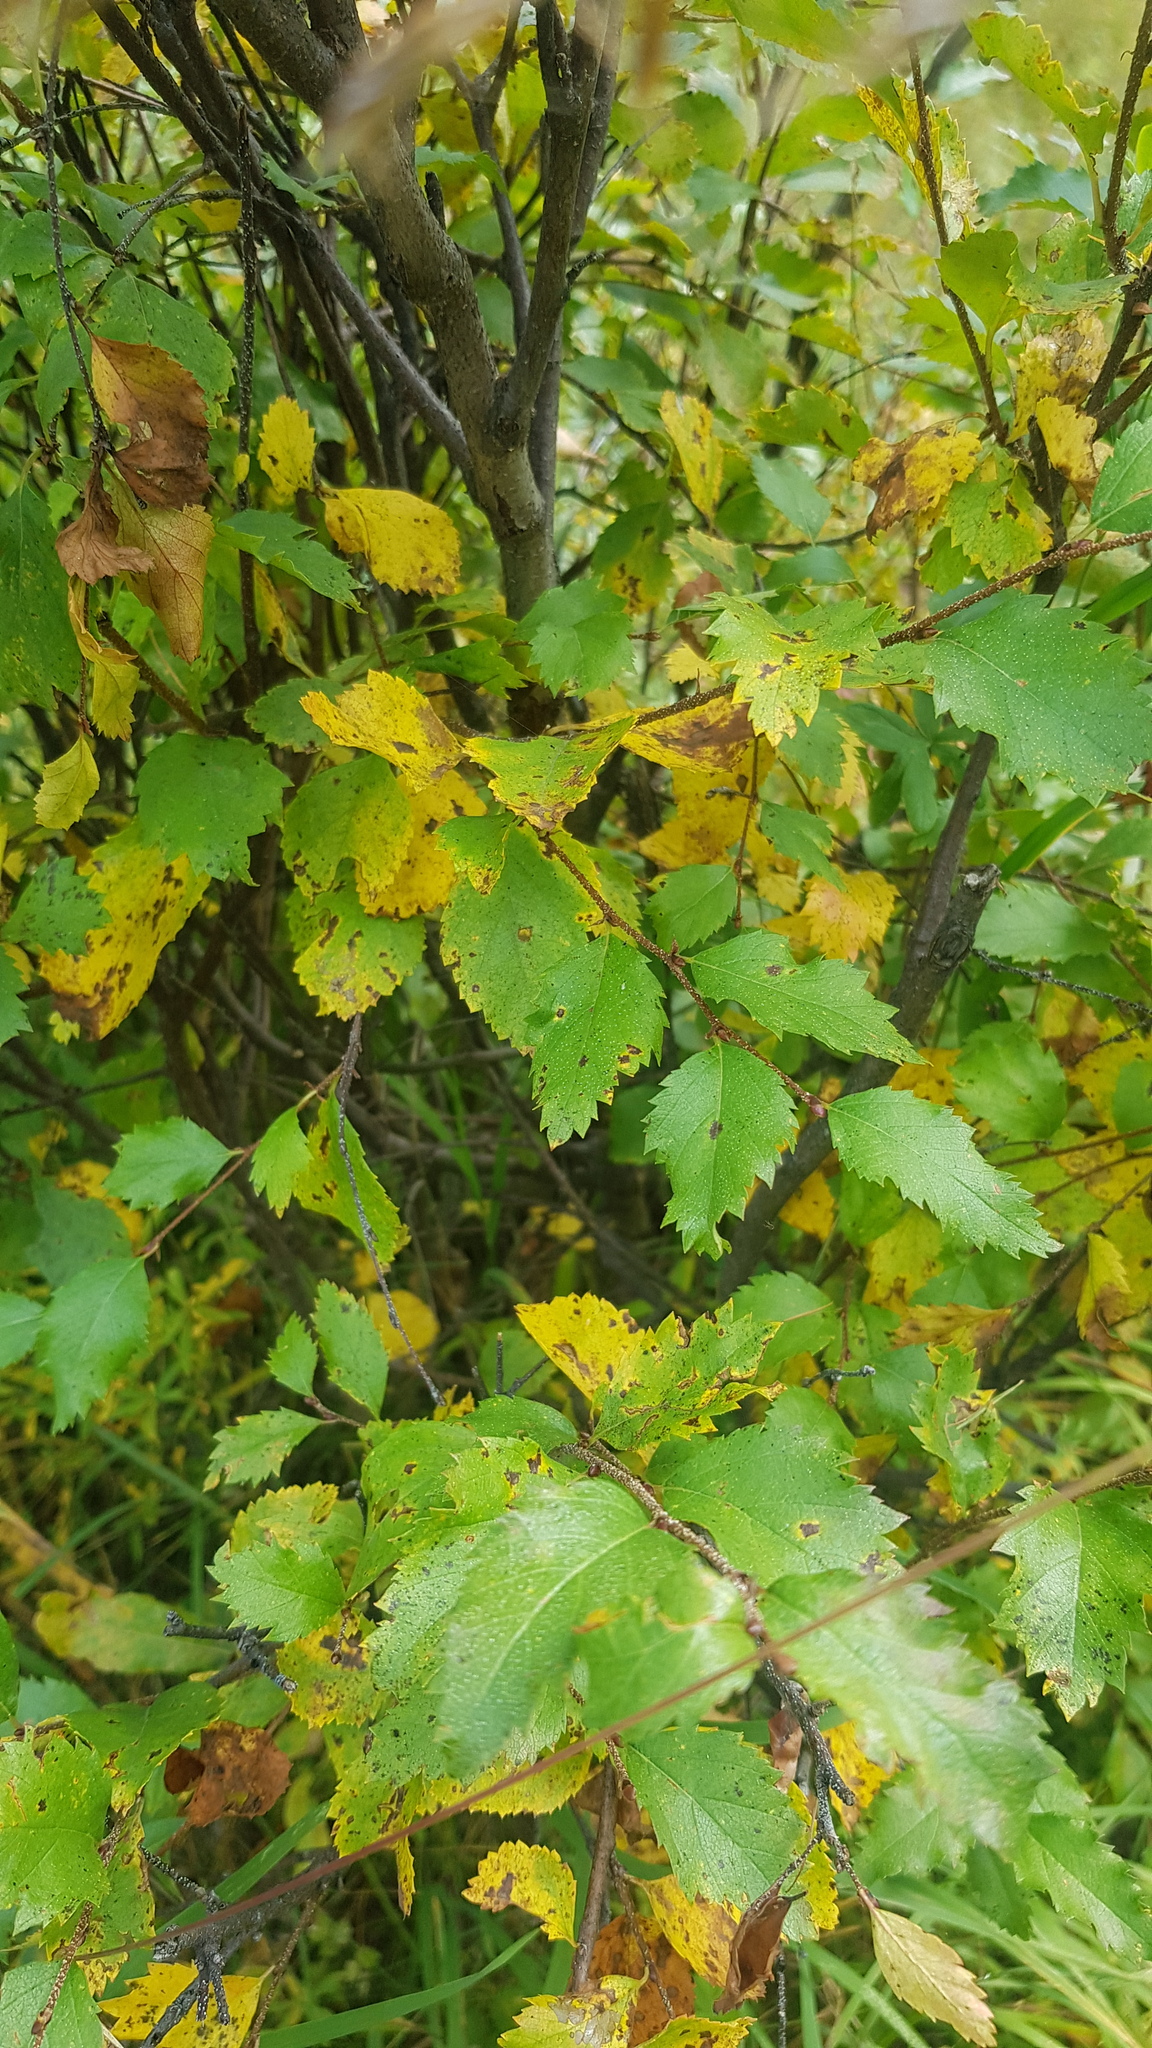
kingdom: Plantae
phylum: Tracheophyta
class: Magnoliopsida
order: Fagales
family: Betulaceae
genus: Betula
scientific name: Betula fruticosa
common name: Japanese bog birch
